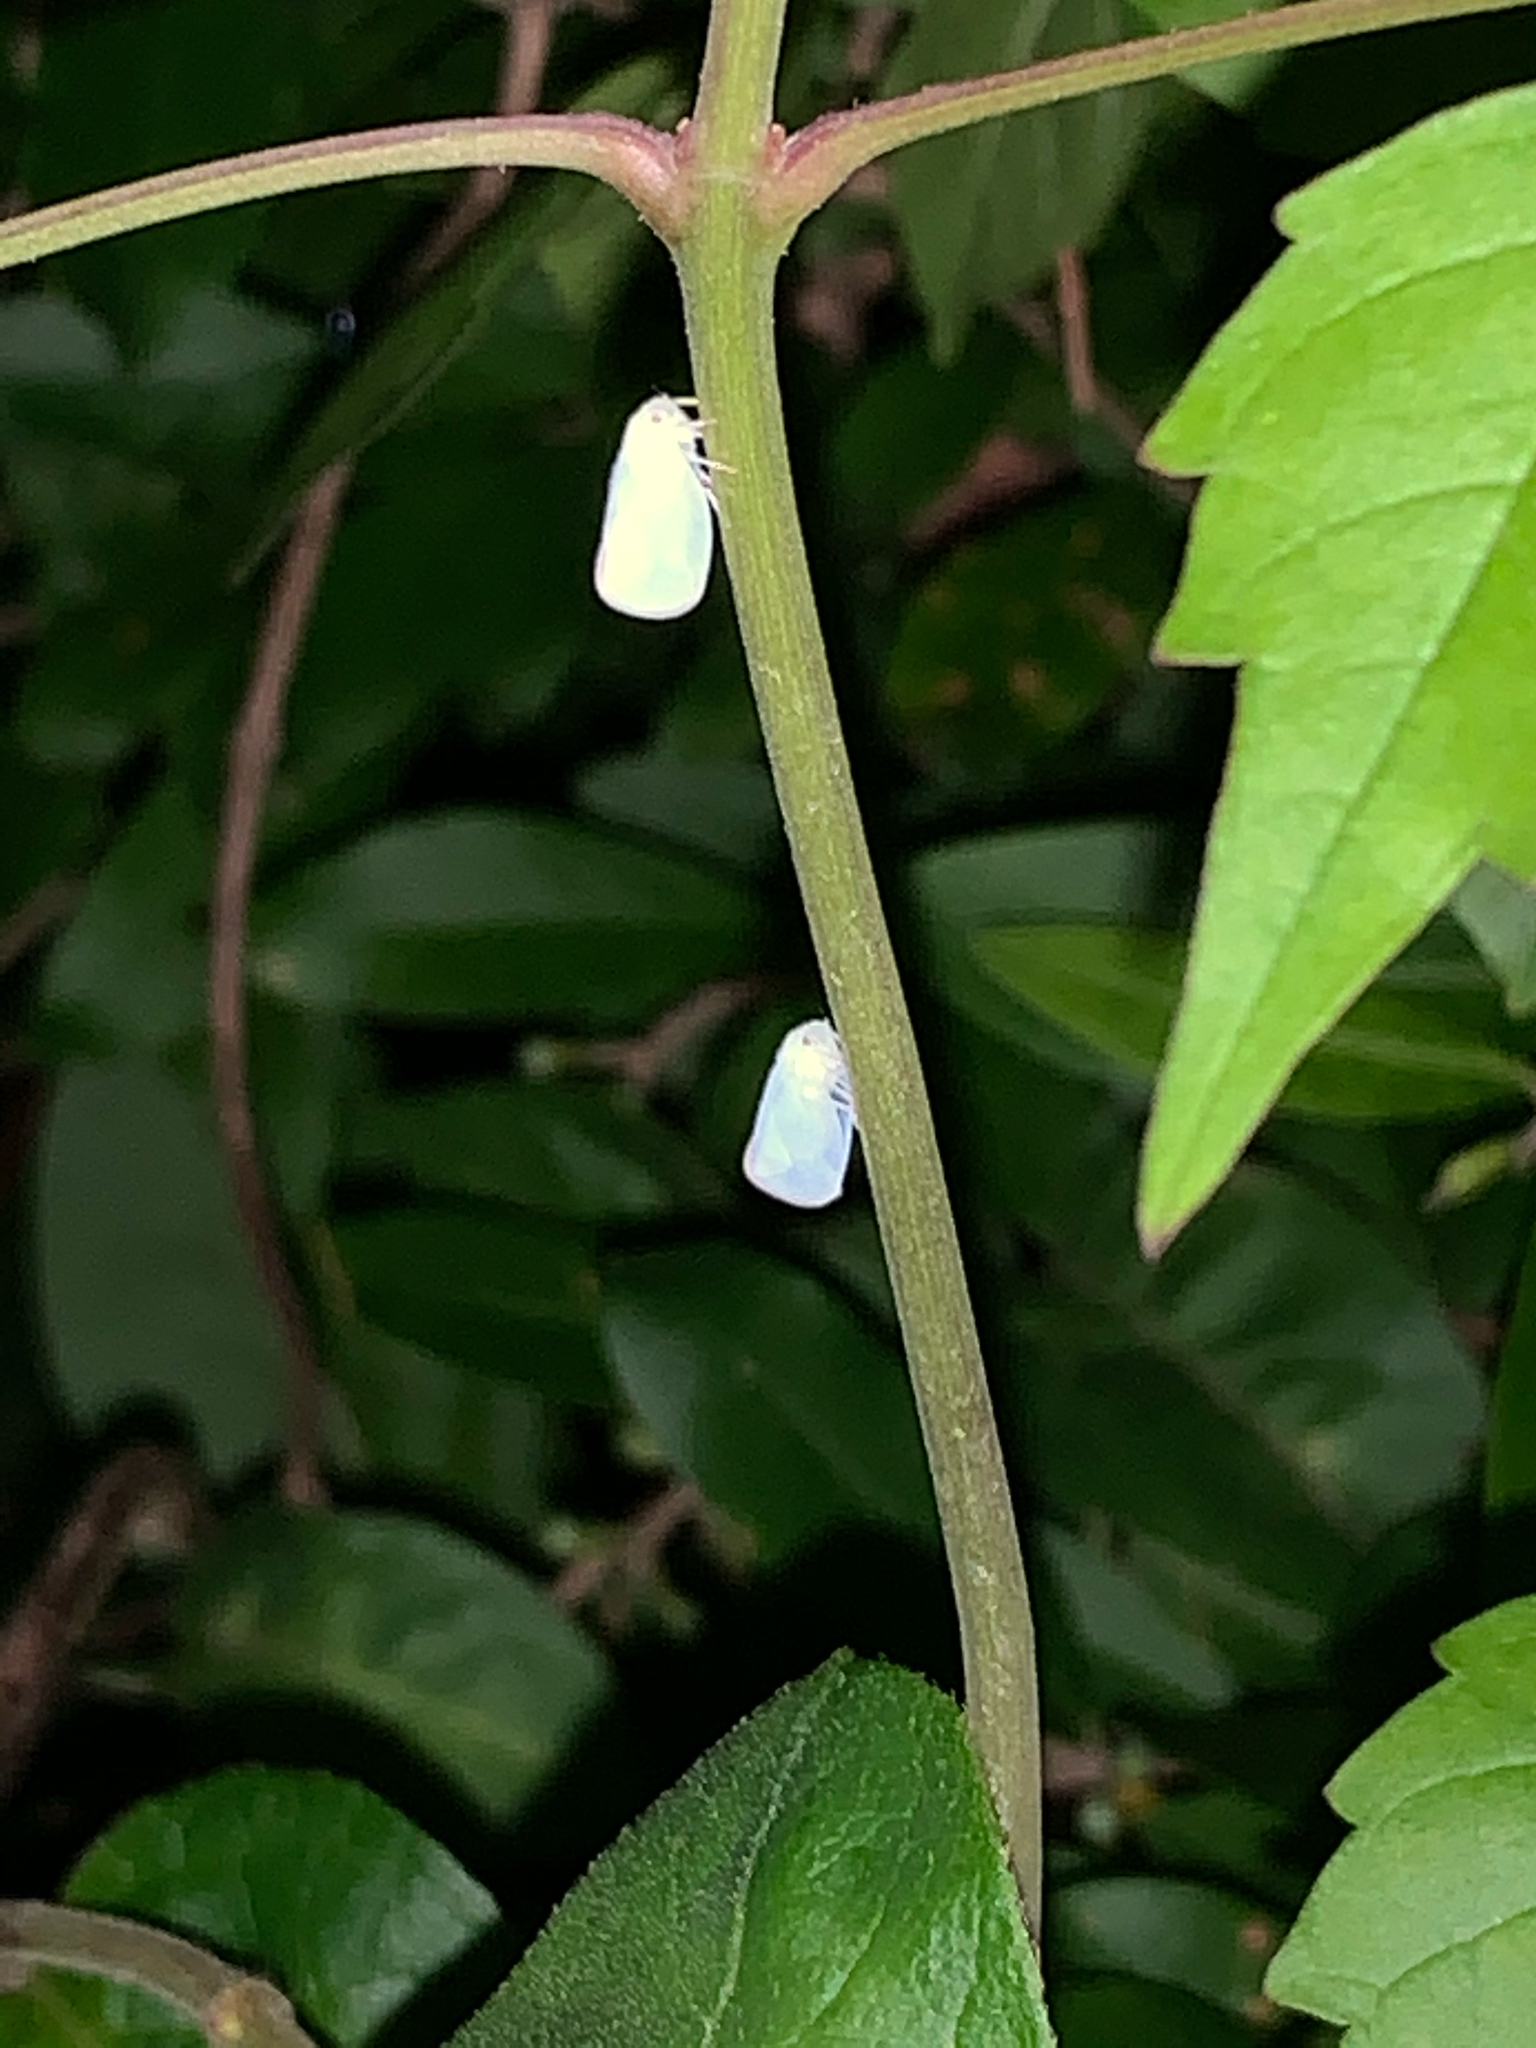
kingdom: Animalia
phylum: Arthropoda
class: Insecta
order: Hemiptera
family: Flatidae
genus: Ormenoides
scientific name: Ormenoides venusta
